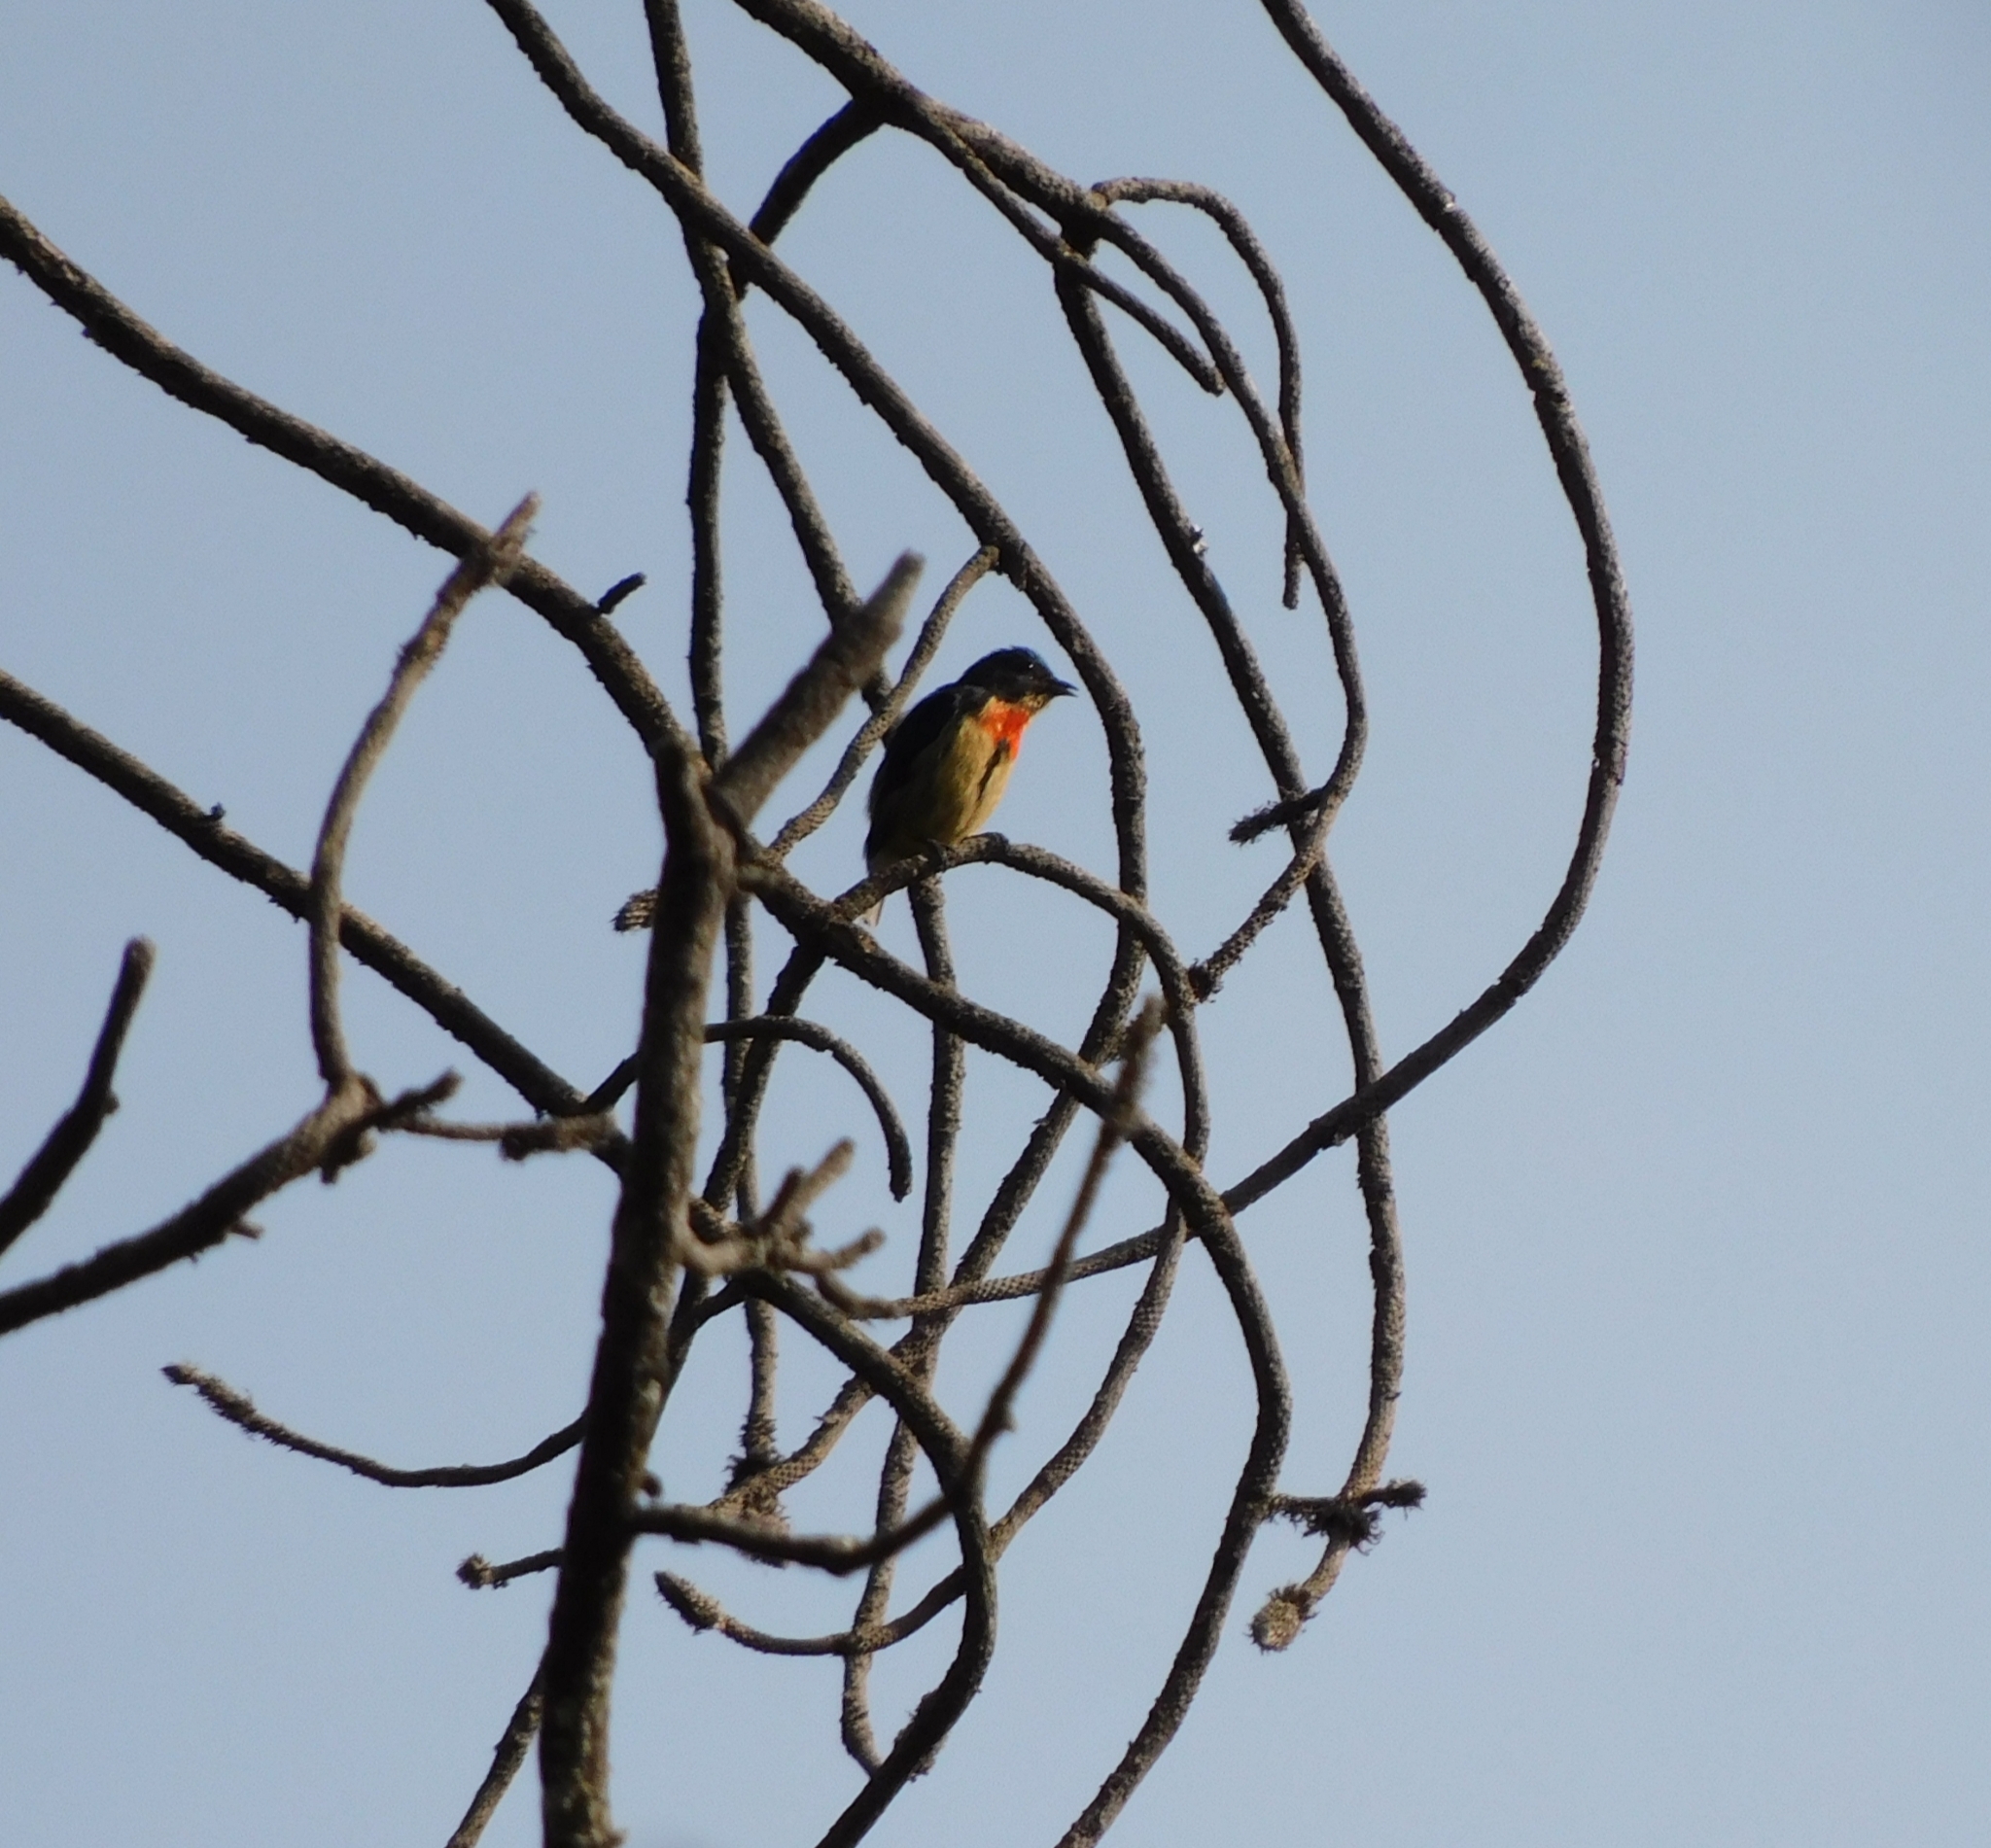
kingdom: Animalia
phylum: Chordata
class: Aves
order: Passeriformes
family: Dicaeidae
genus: Dicaeum
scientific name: Dicaeum ignipectus
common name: Fire-breasted flowerpecker
